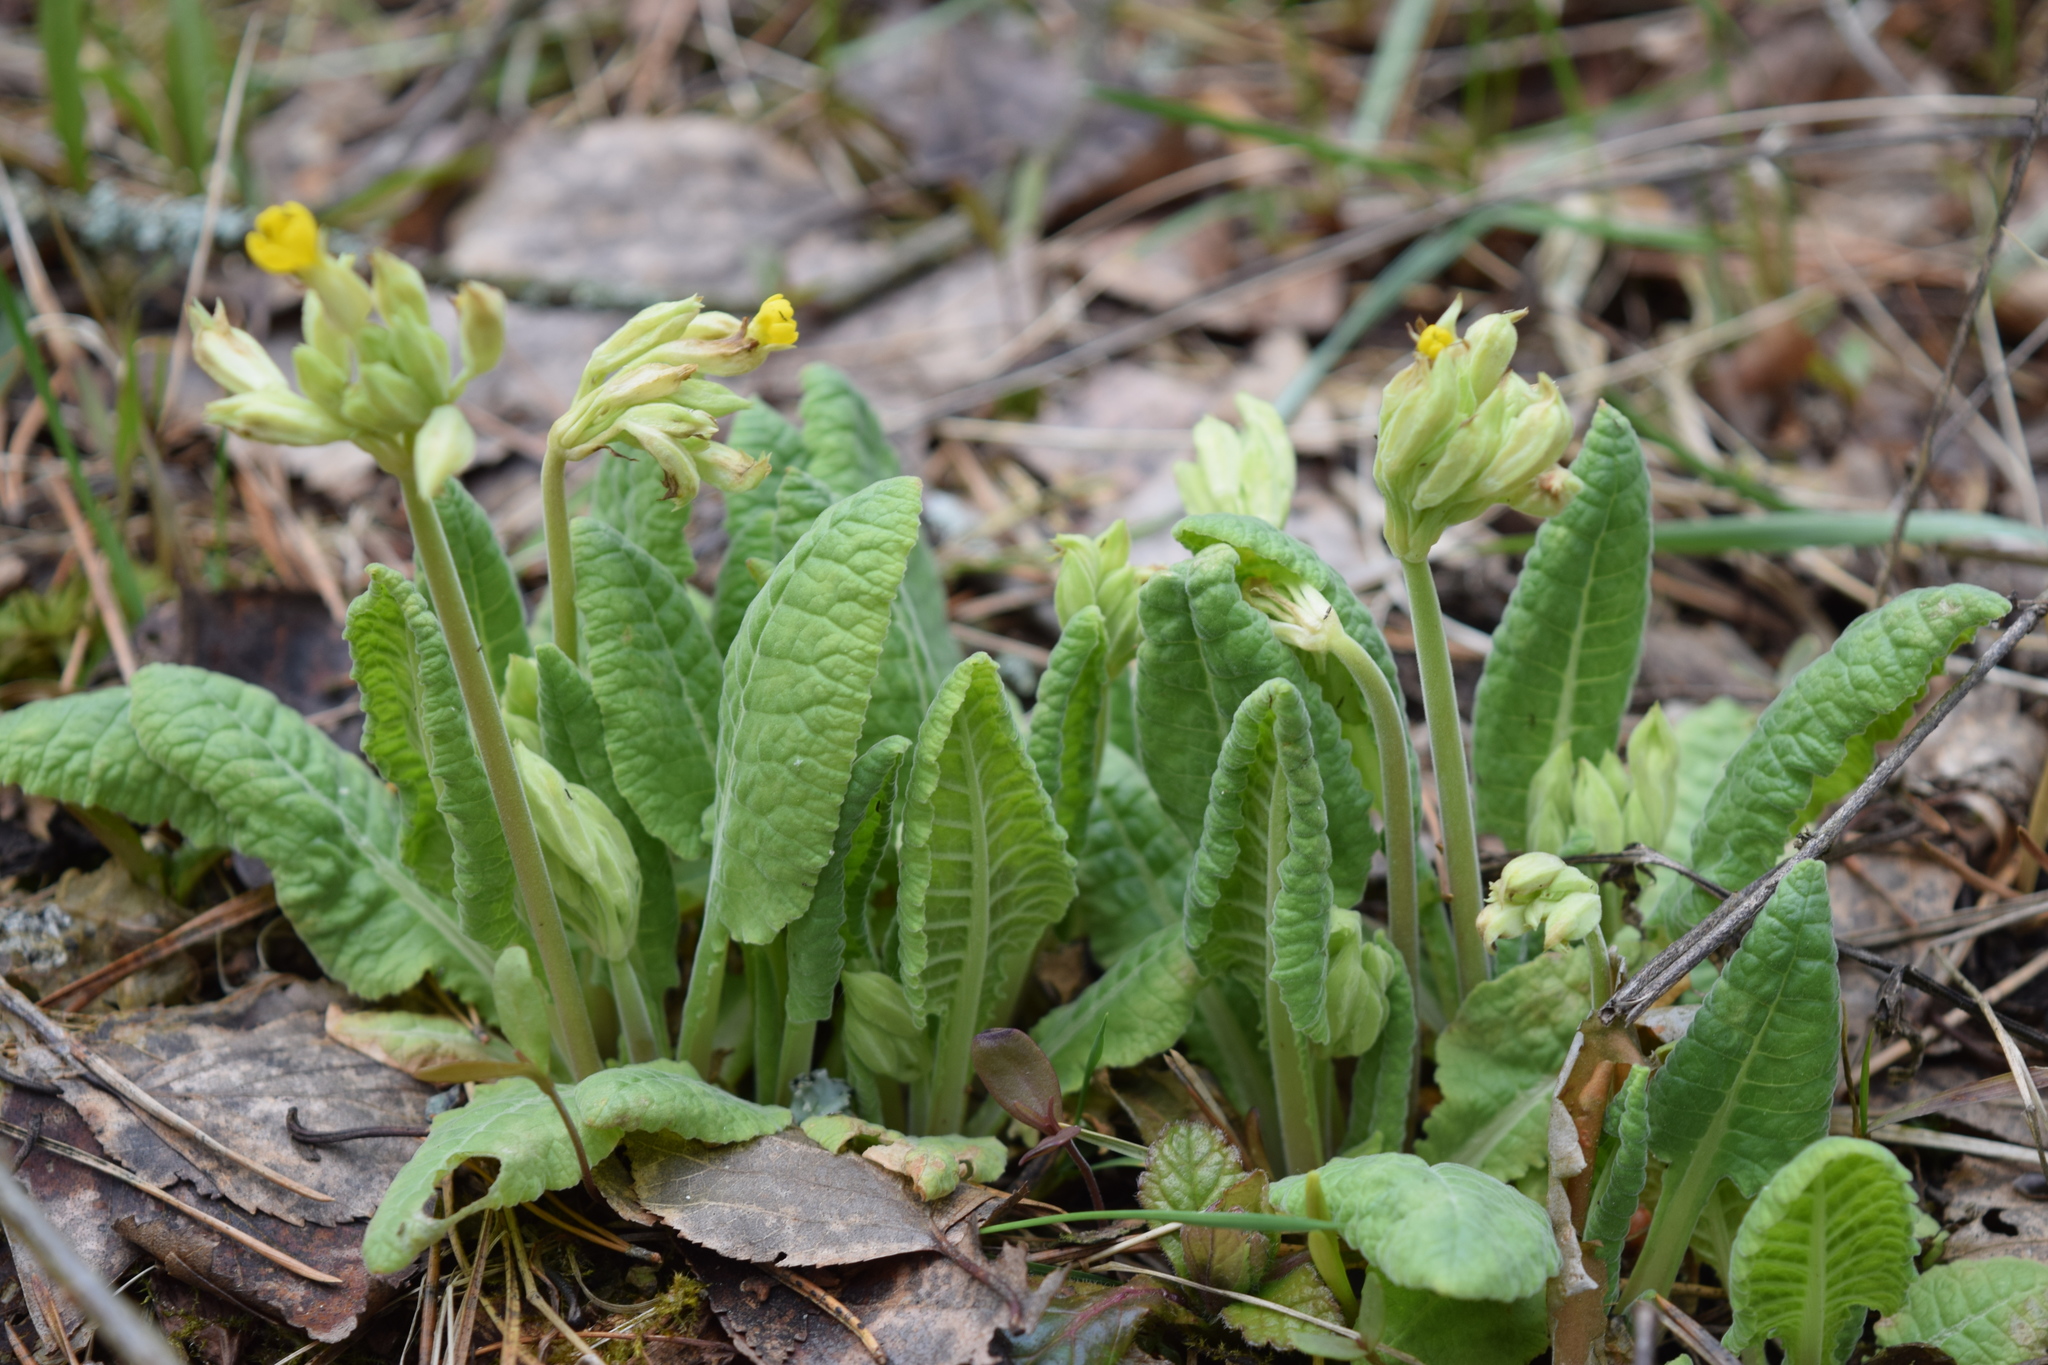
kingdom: Plantae
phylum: Tracheophyta
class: Magnoliopsida
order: Ericales
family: Primulaceae
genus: Primula
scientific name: Primula veris
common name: Cowslip
